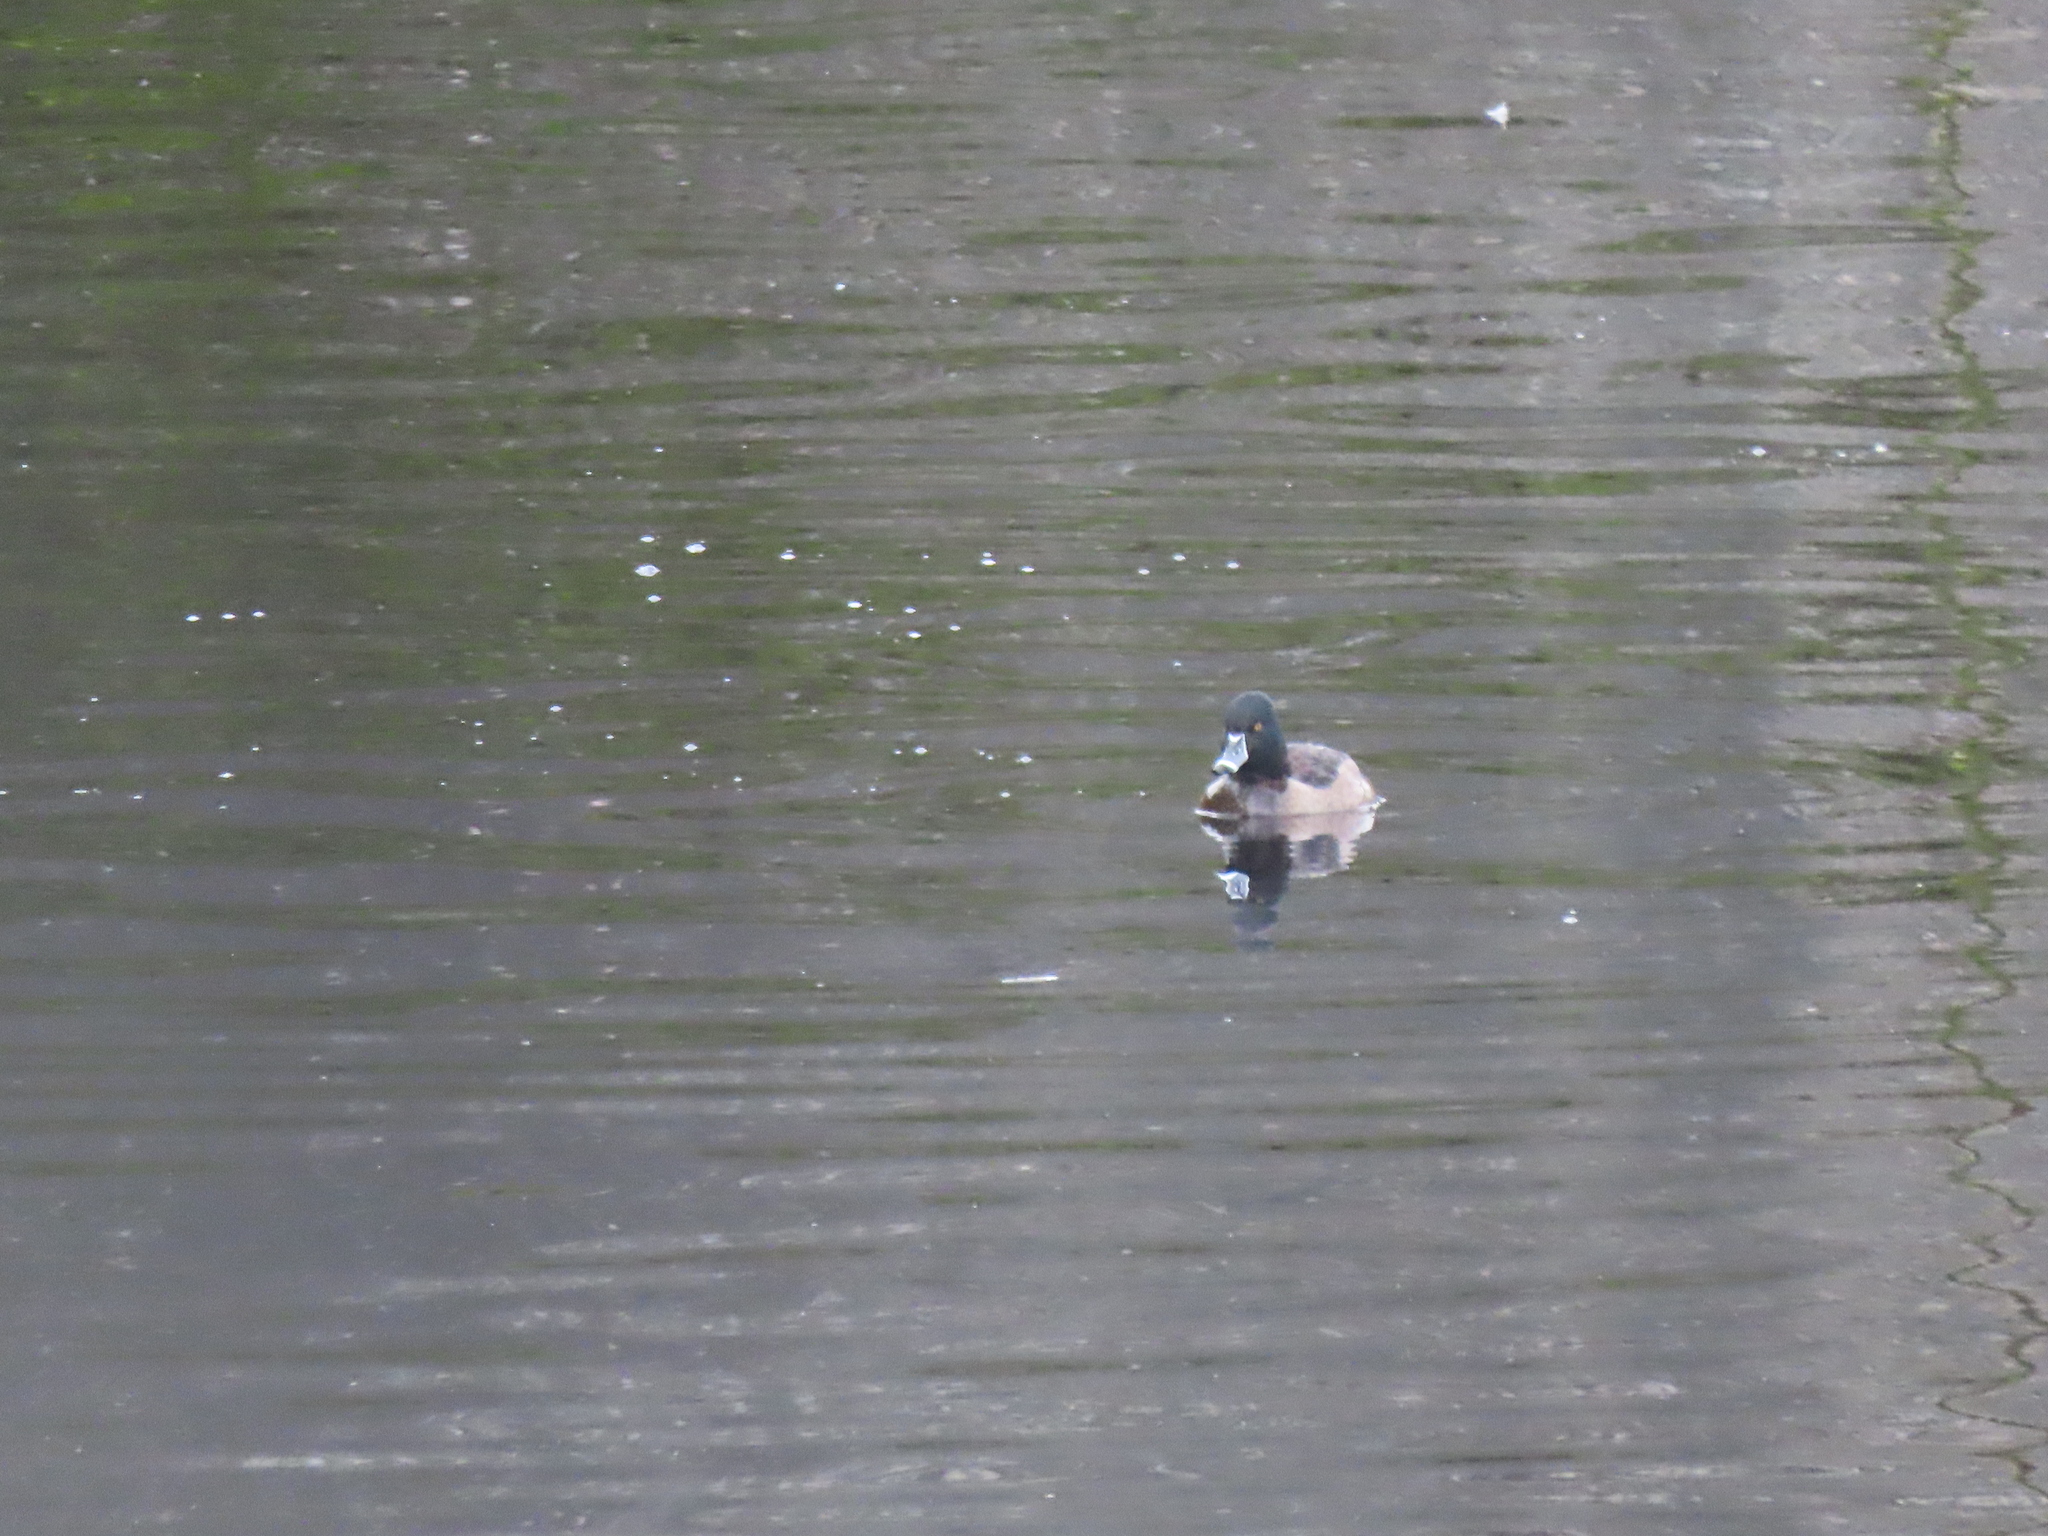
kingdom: Animalia
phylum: Chordata
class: Aves
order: Anseriformes
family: Anatidae
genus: Aythya
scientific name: Aythya collaris
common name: Ring-necked duck
